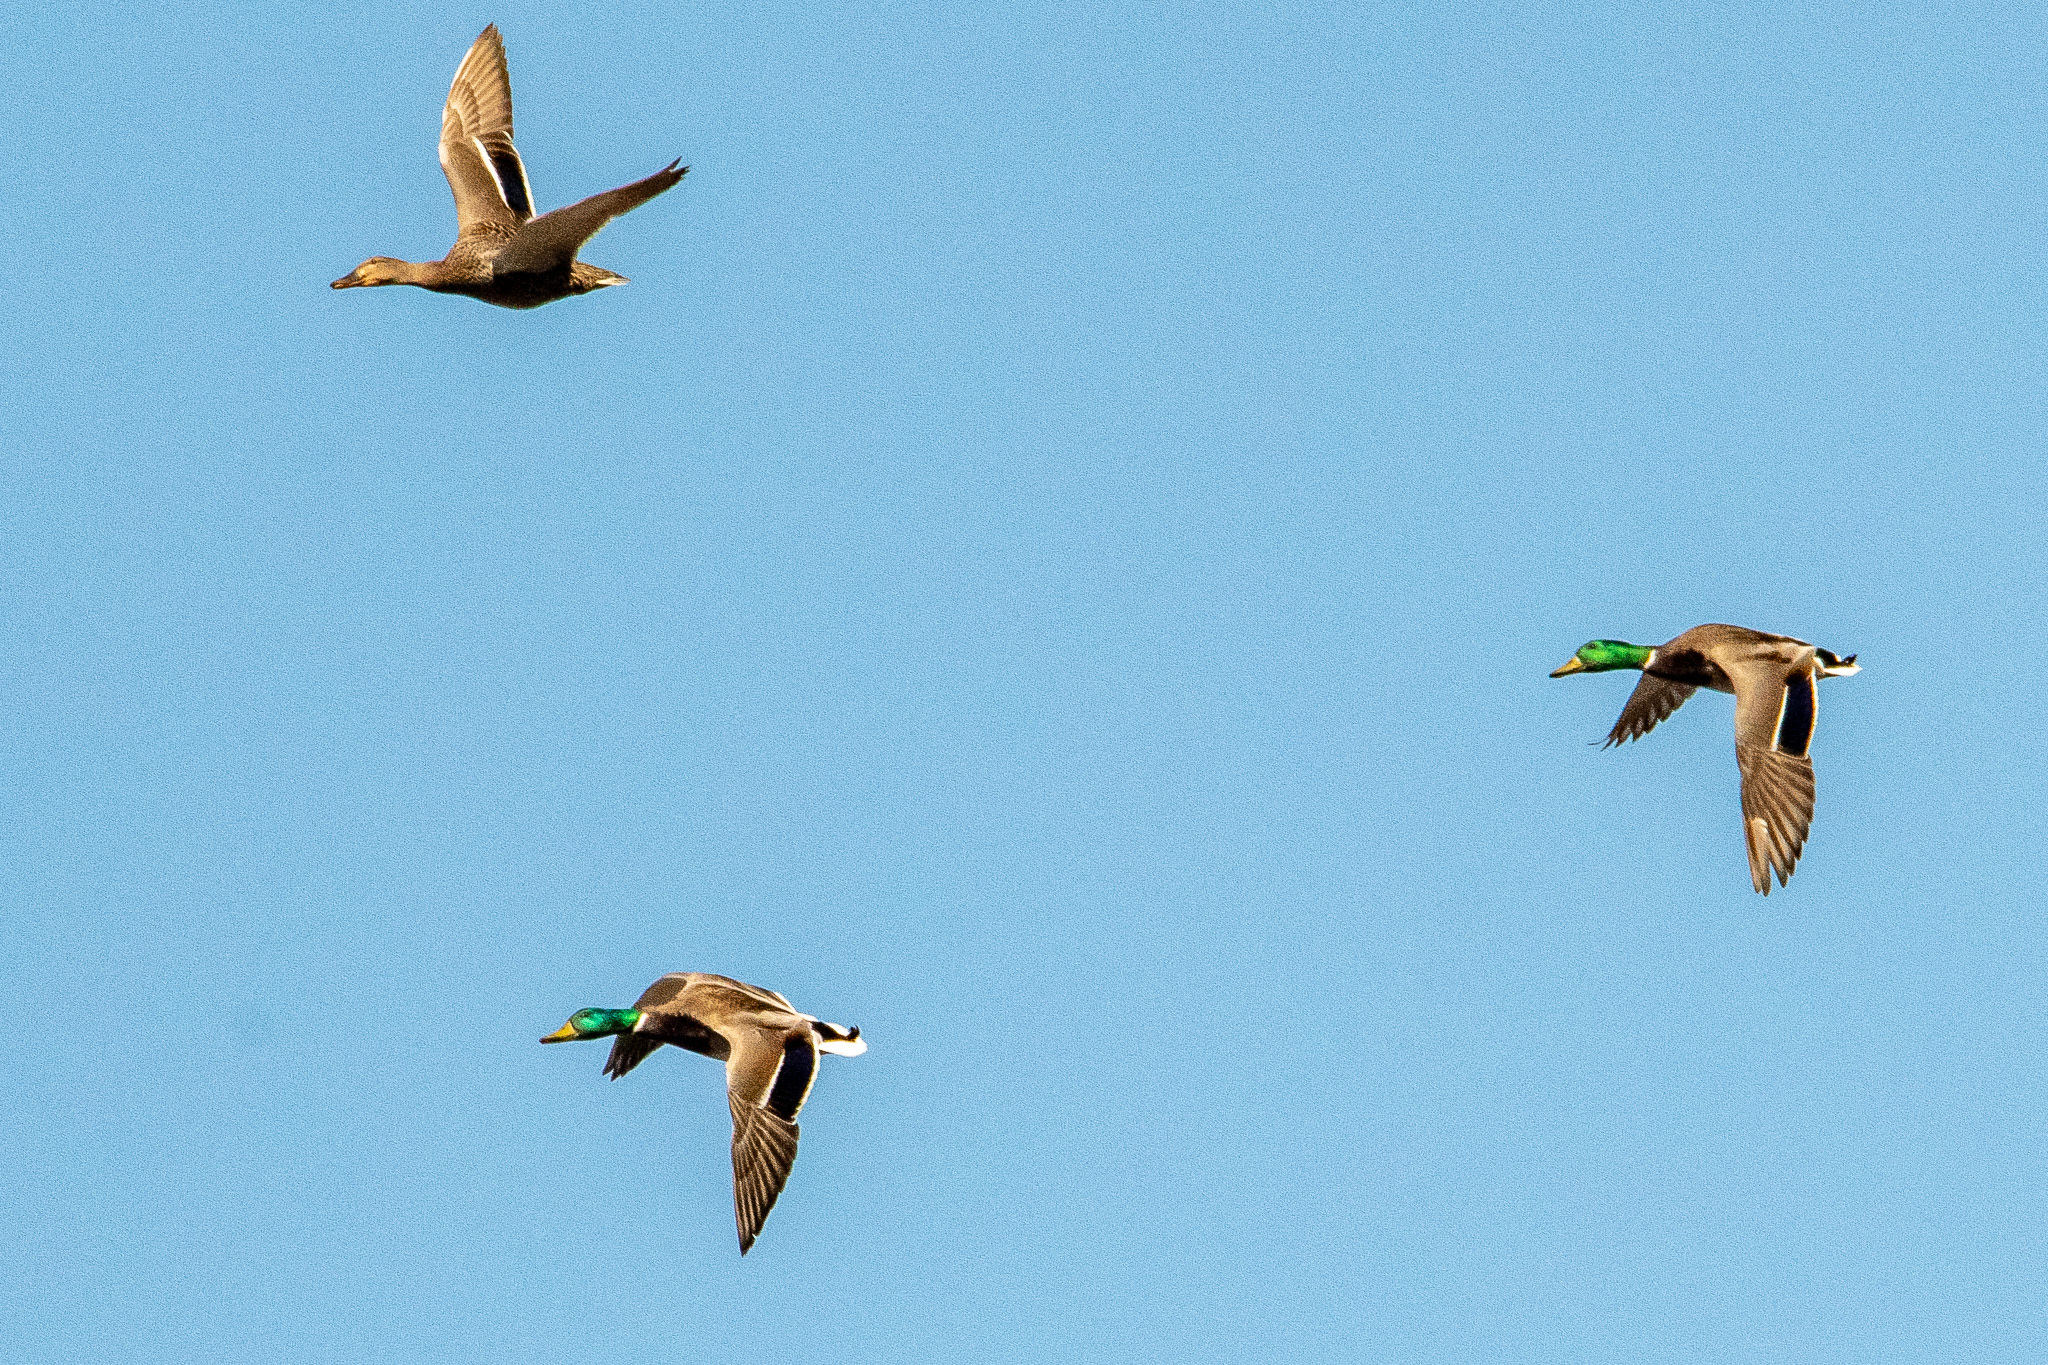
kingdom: Animalia
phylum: Chordata
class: Aves
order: Anseriformes
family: Anatidae
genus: Anas
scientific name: Anas platyrhynchos
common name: Mallard
